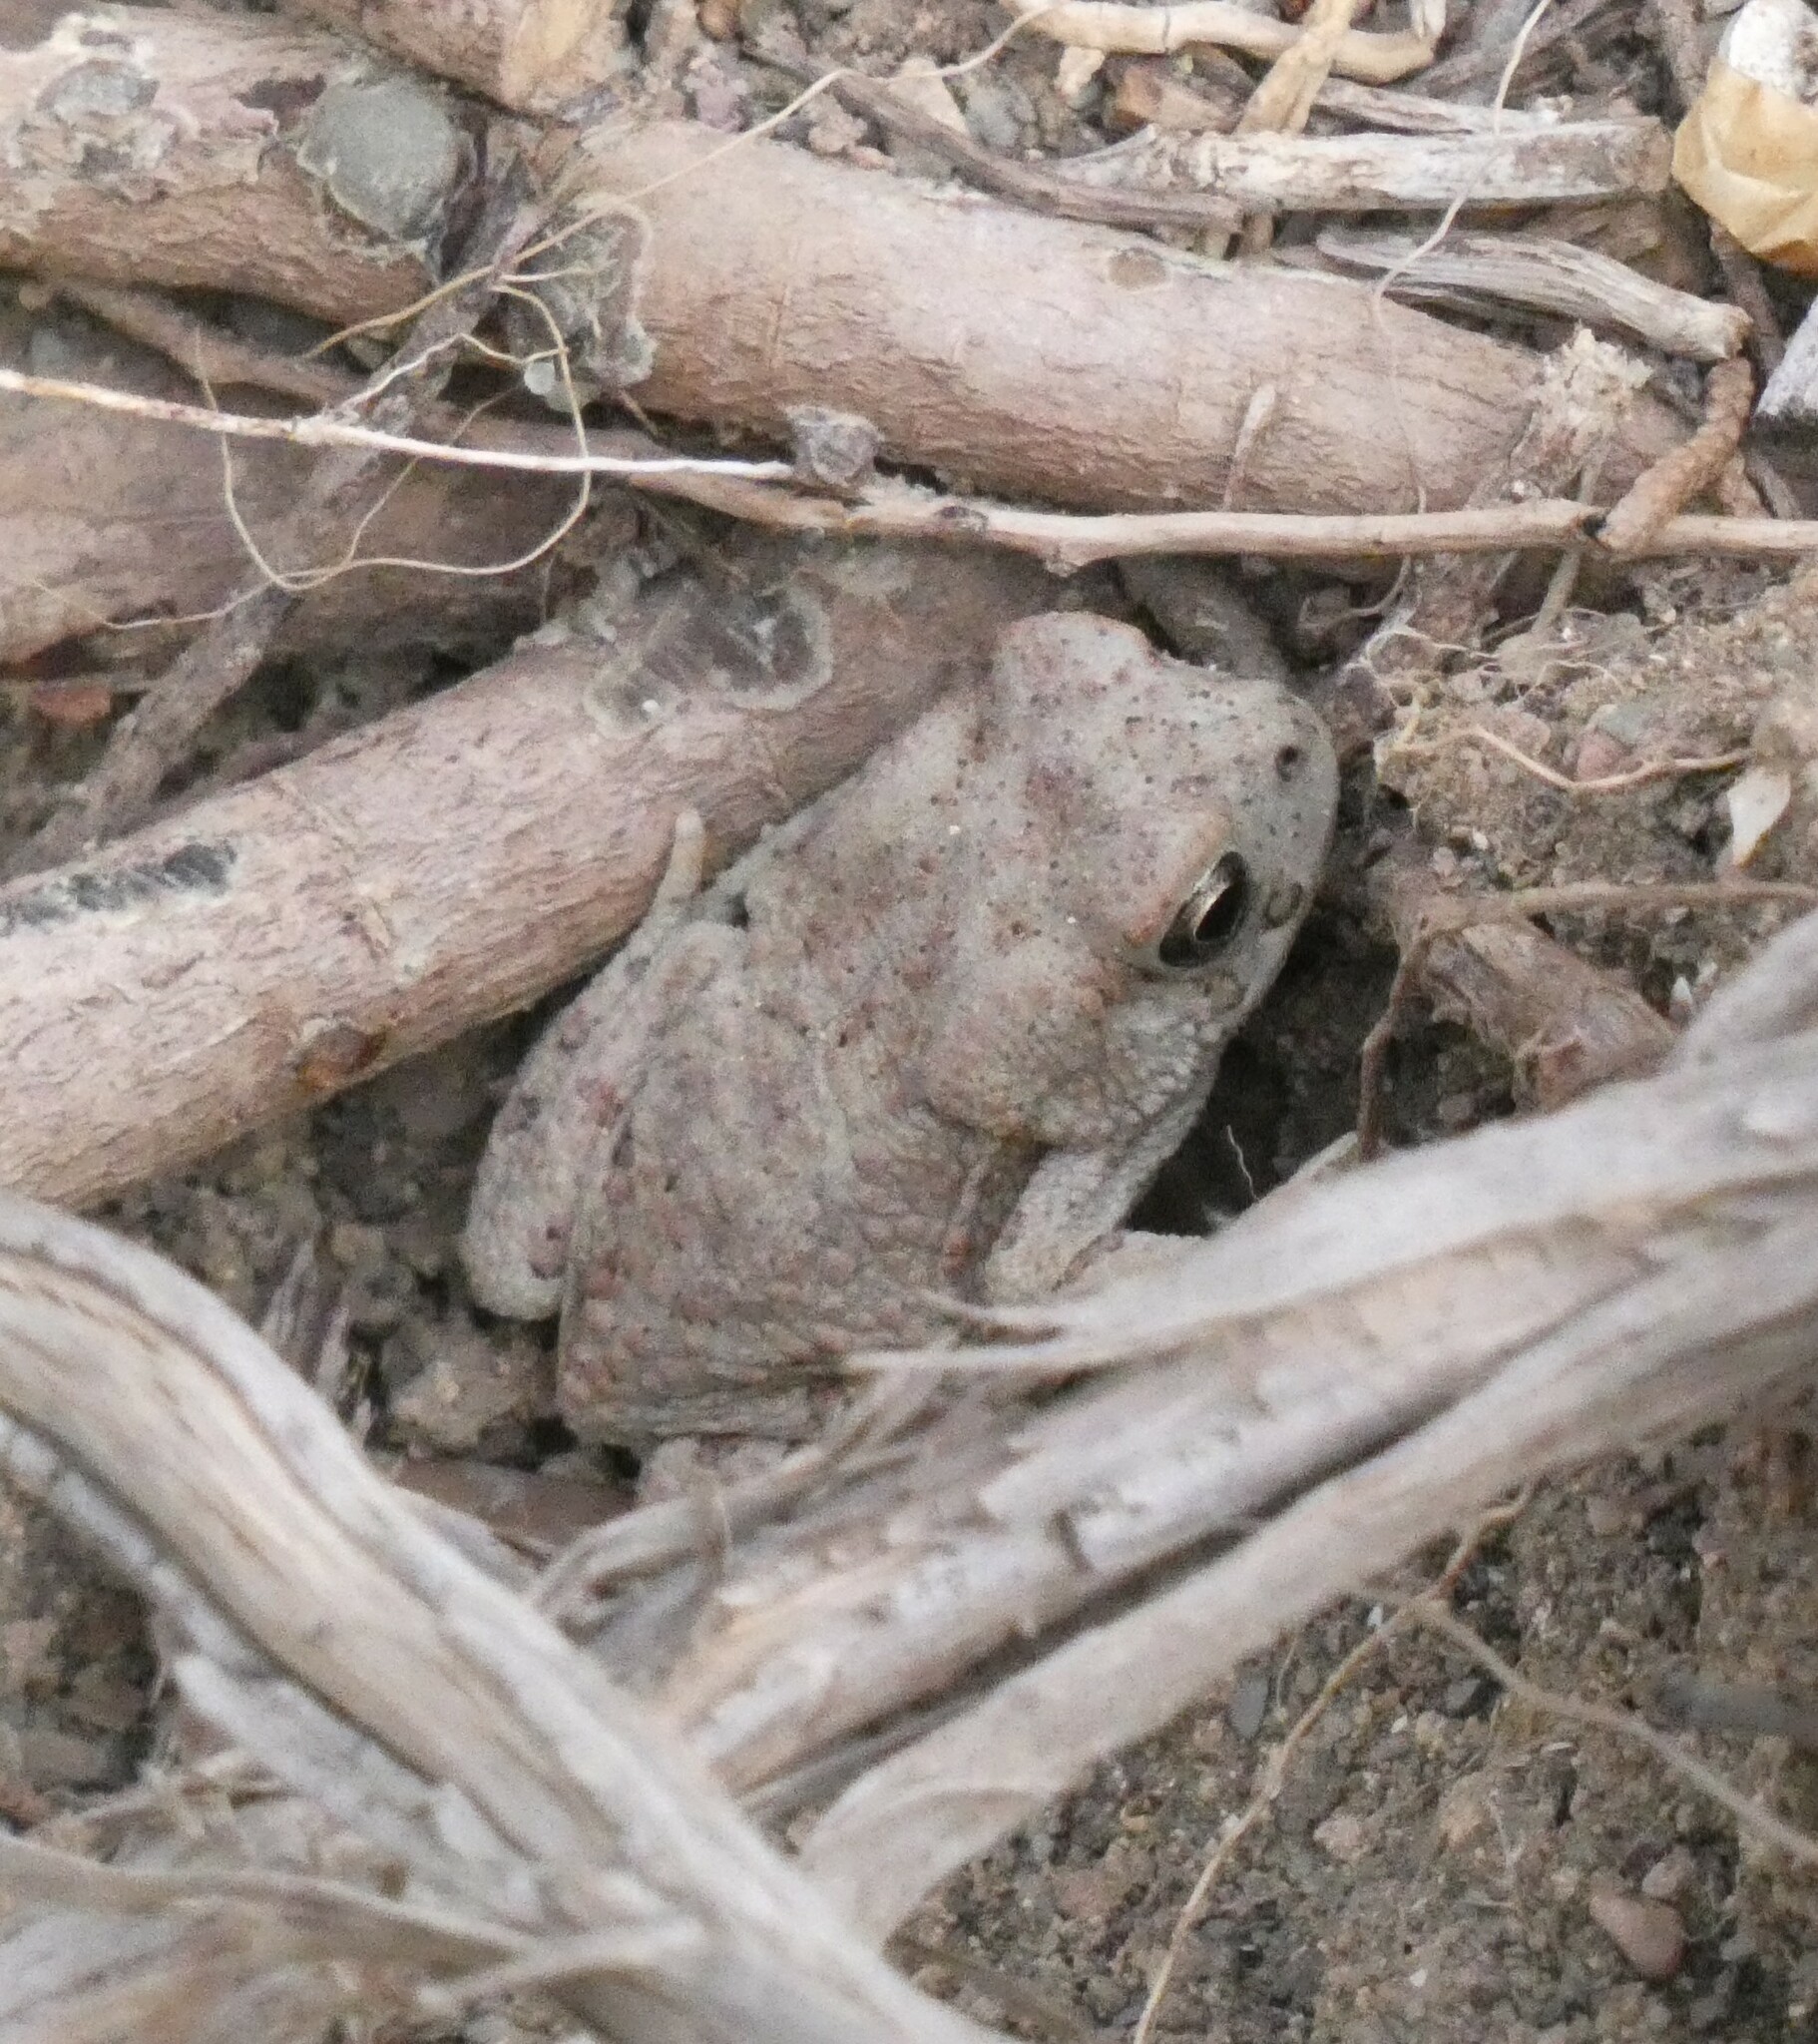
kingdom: Animalia
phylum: Chordata
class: Amphibia
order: Anura
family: Bufonidae
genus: Sclerophrys
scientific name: Sclerophrys mauritanica
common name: Berber toad
